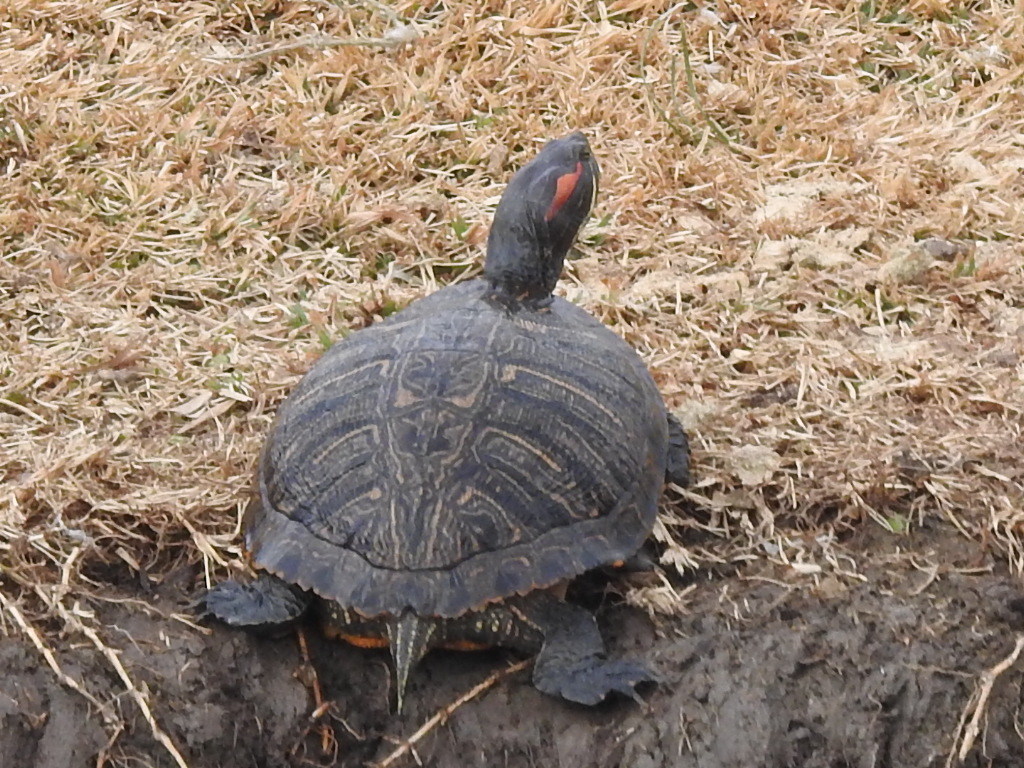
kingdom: Animalia
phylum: Chordata
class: Testudines
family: Emydidae
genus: Trachemys
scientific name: Trachemys scripta
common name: Slider
